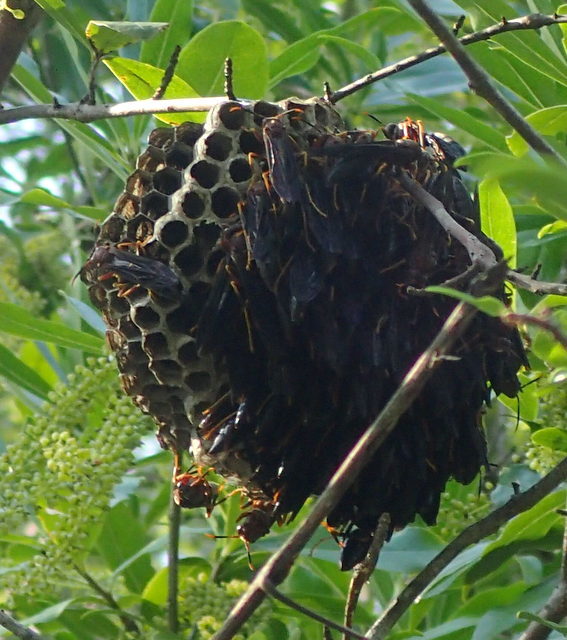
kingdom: Animalia
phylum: Arthropoda
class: Insecta
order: Hymenoptera
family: Eumenidae
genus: Polistes
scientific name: Polistes annularis
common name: Ringed paper wasp
